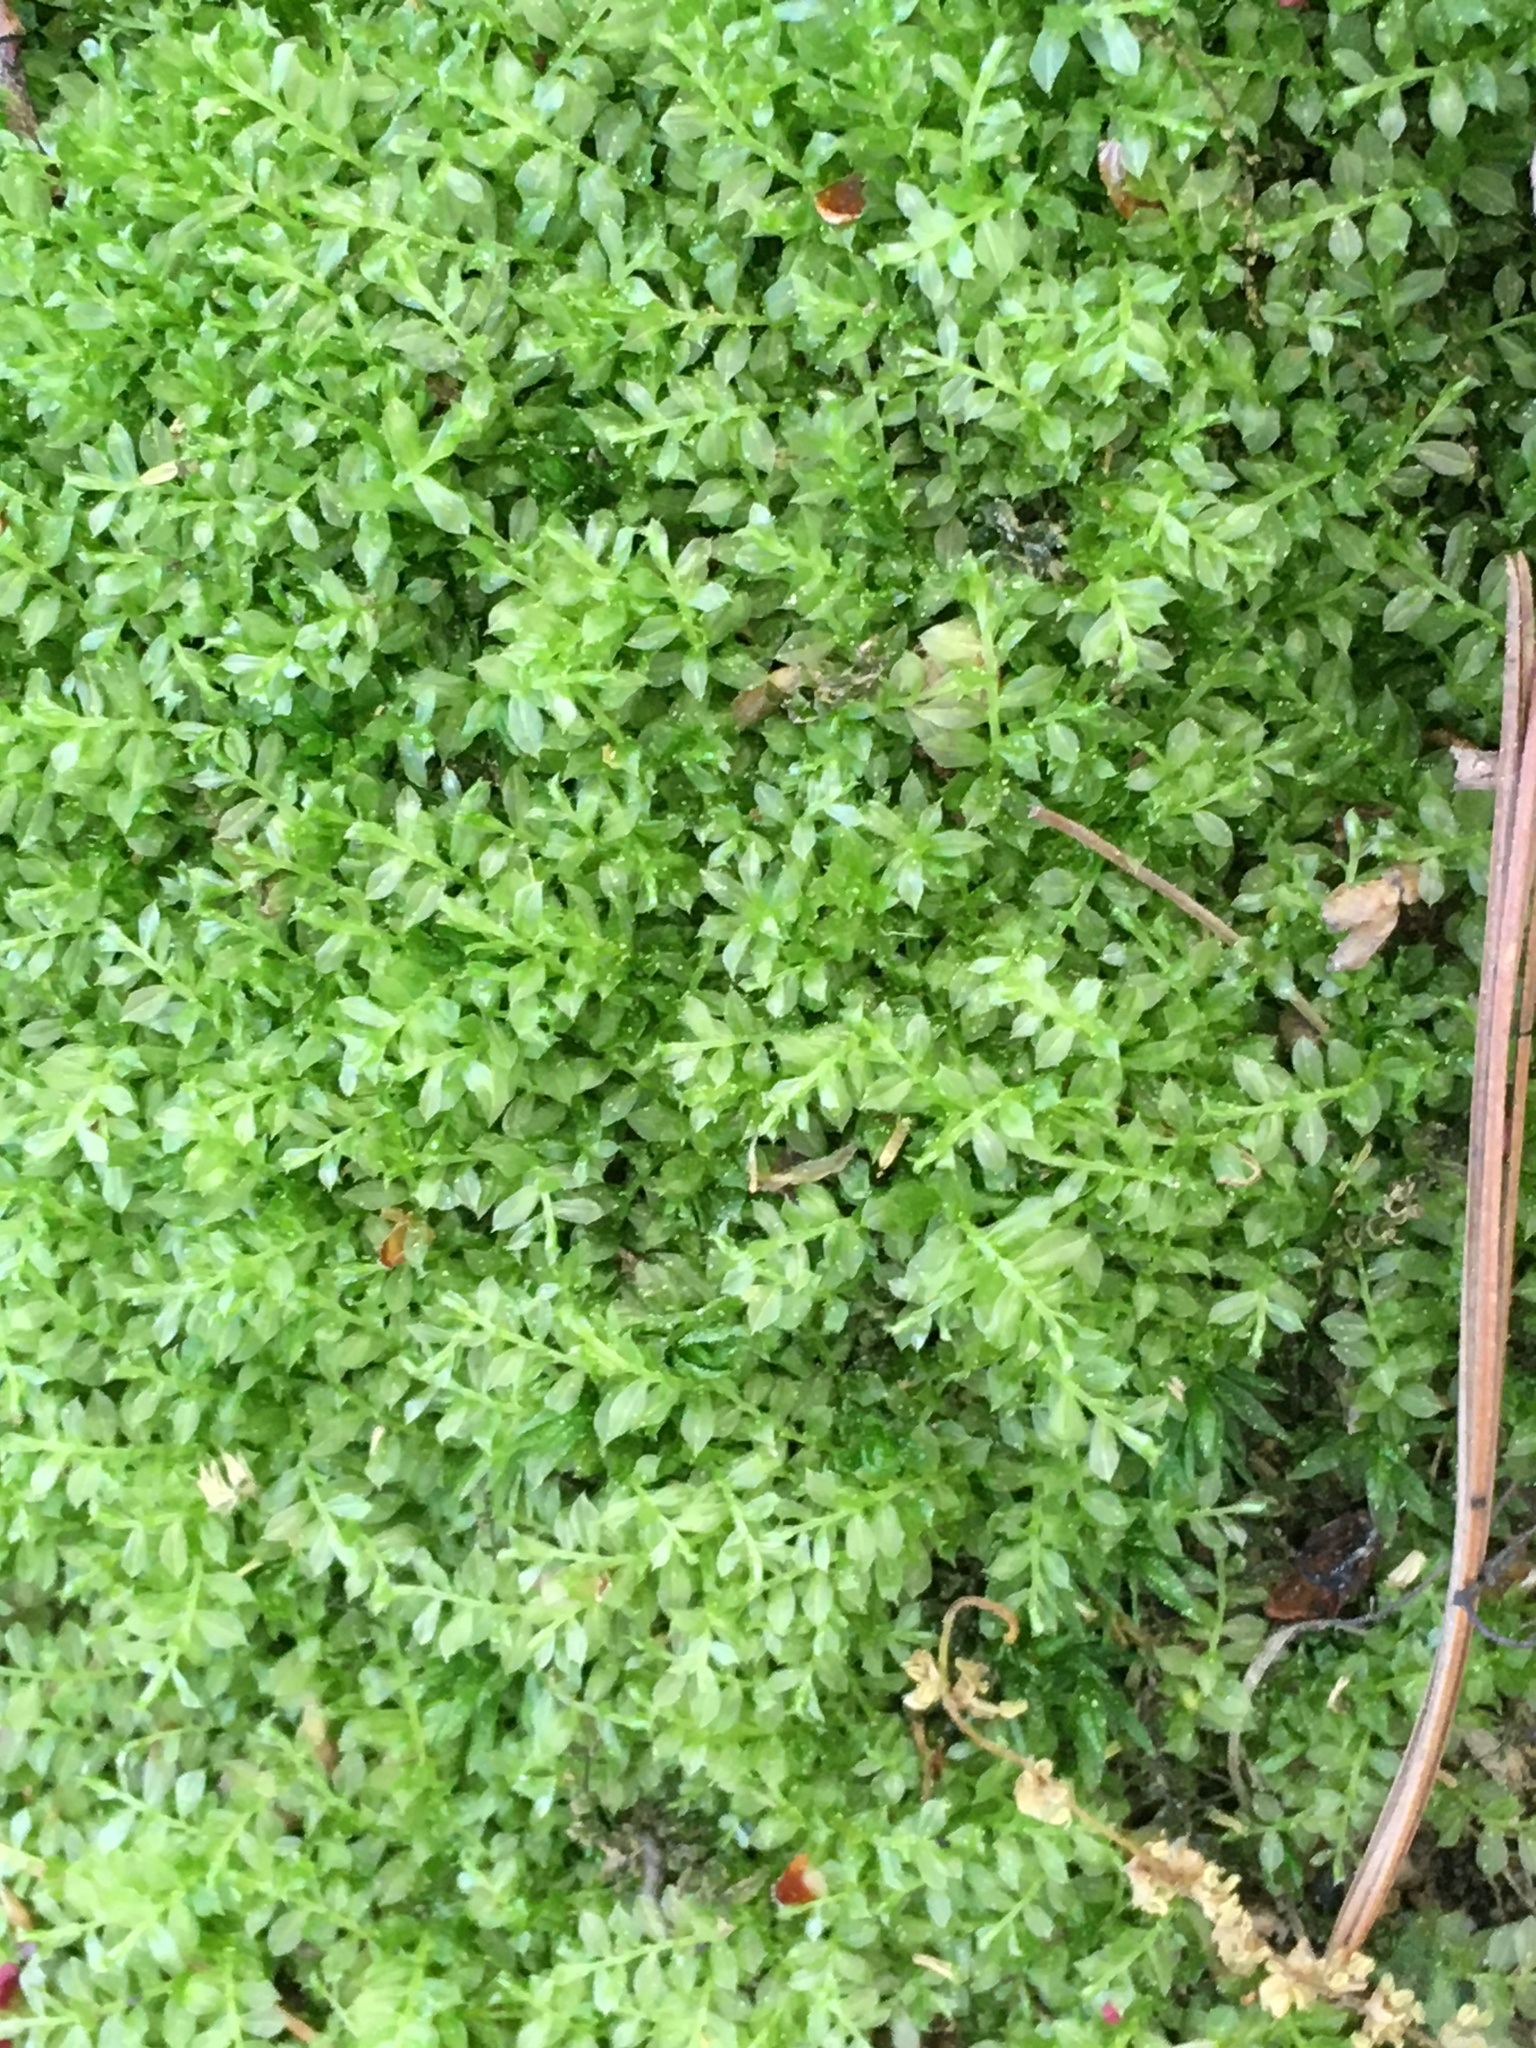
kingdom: Plantae
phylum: Bryophyta
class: Bryopsida
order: Bryales
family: Mniaceae
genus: Plagiomnium
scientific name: Plagiomnium cuspidatum
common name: Woodsy leafy moss
